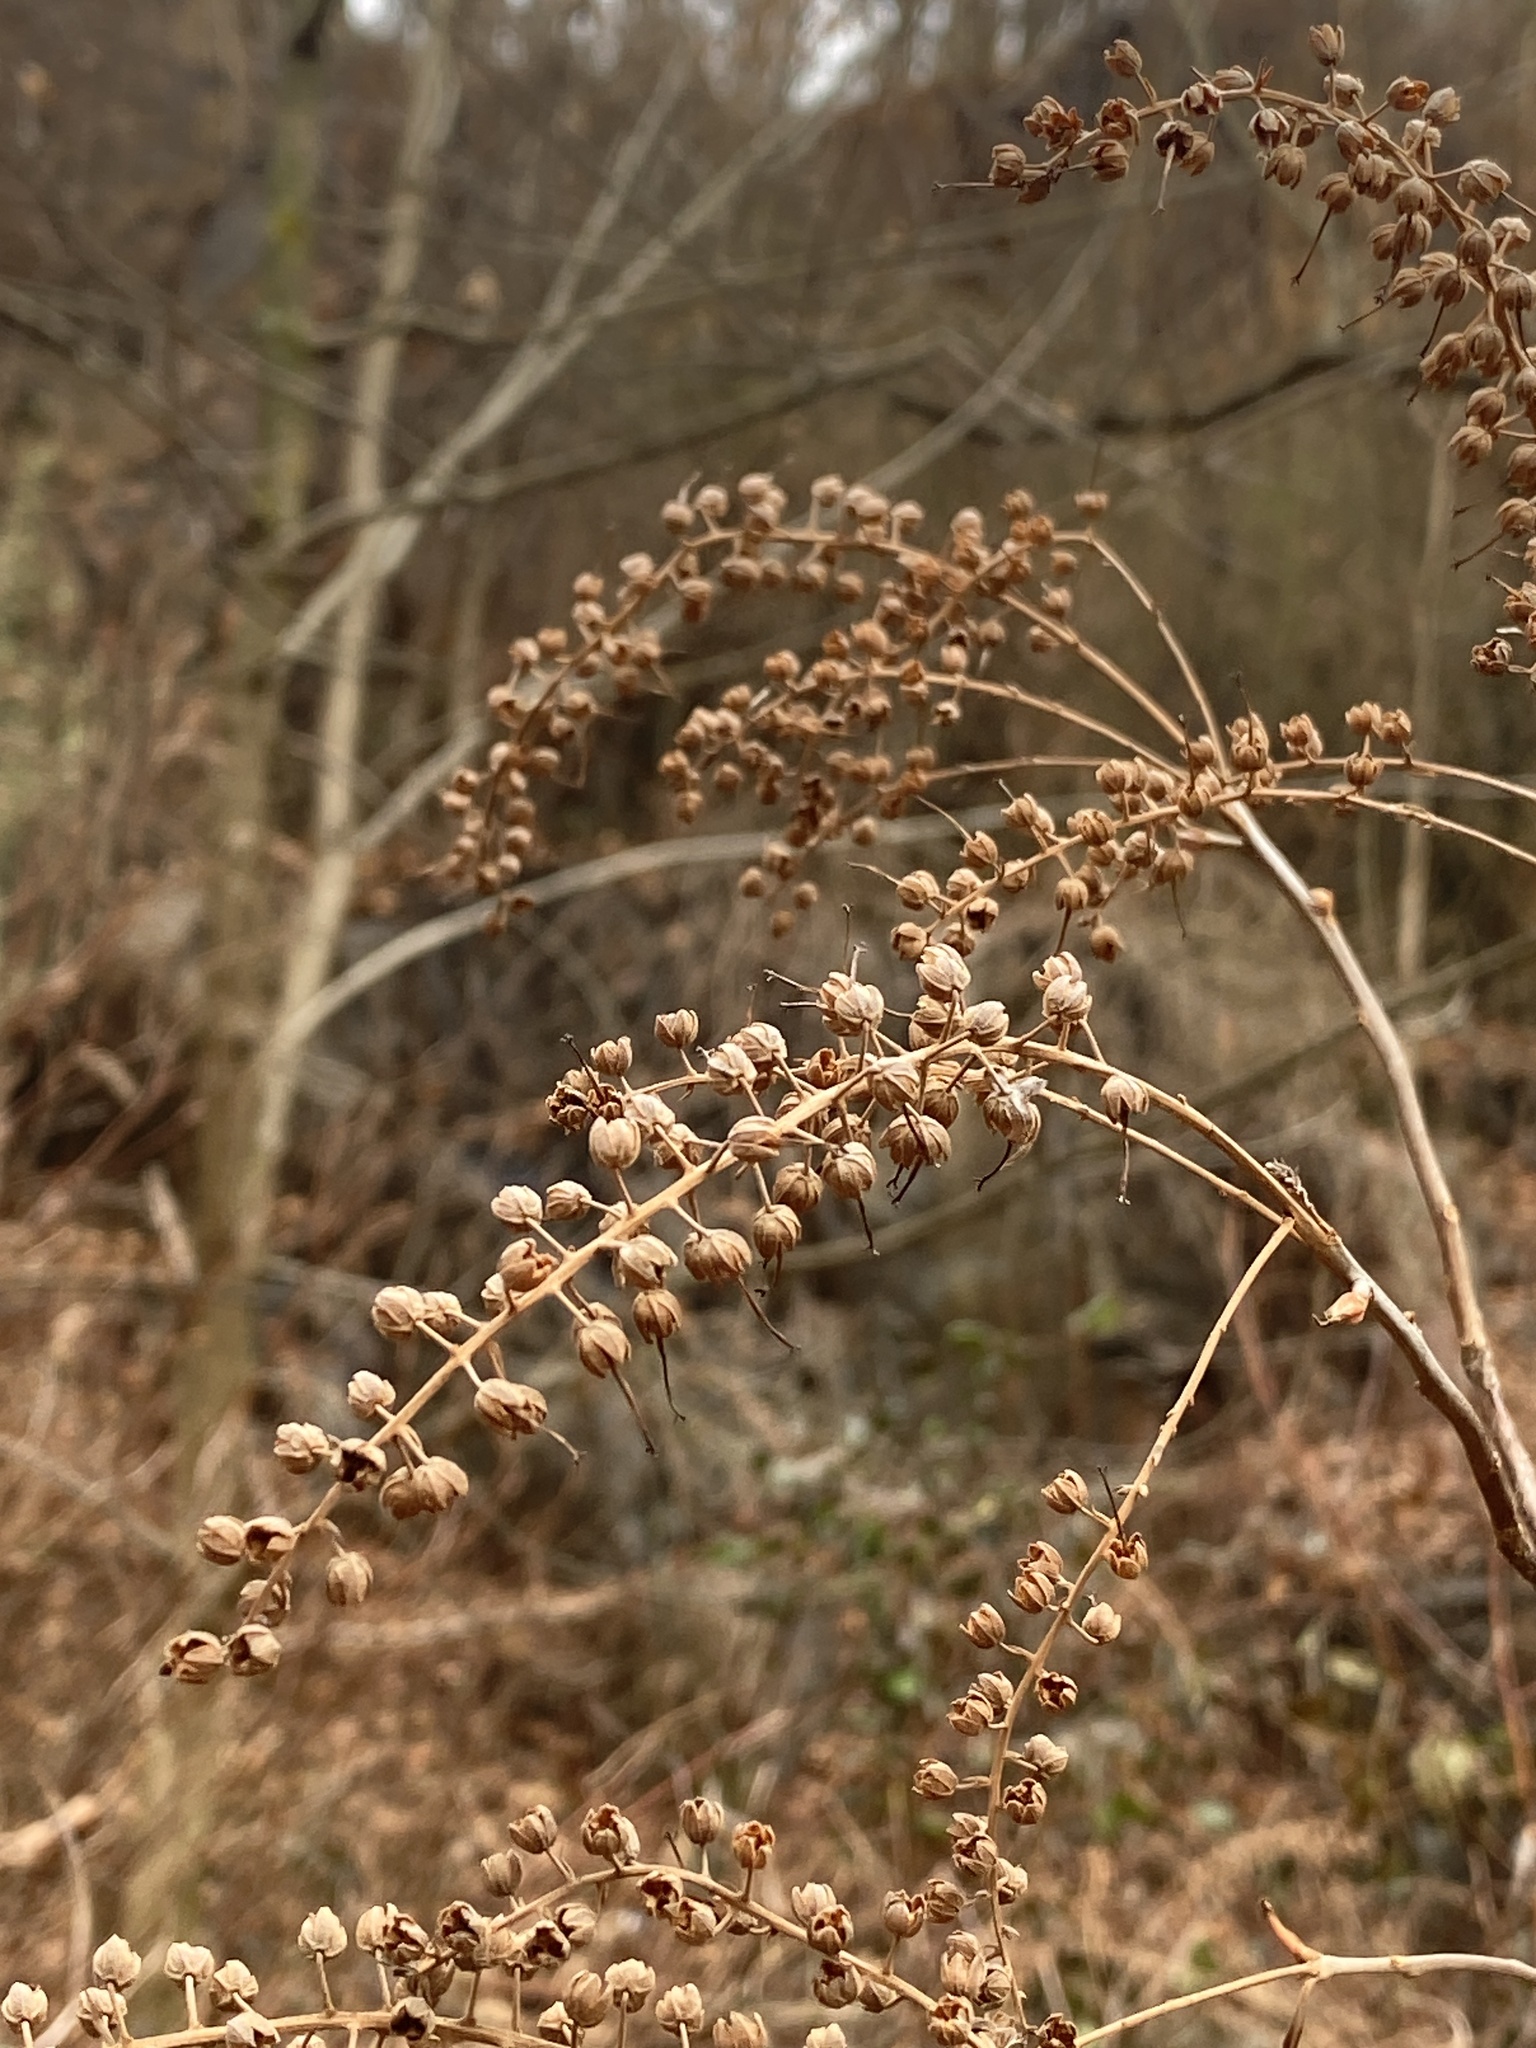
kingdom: Plantae
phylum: Tracheophyta
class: Magnoliopsida
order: Ericales
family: Clethraceae
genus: Clethra
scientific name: Clethra alnifolia
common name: Sweet pepperbush
